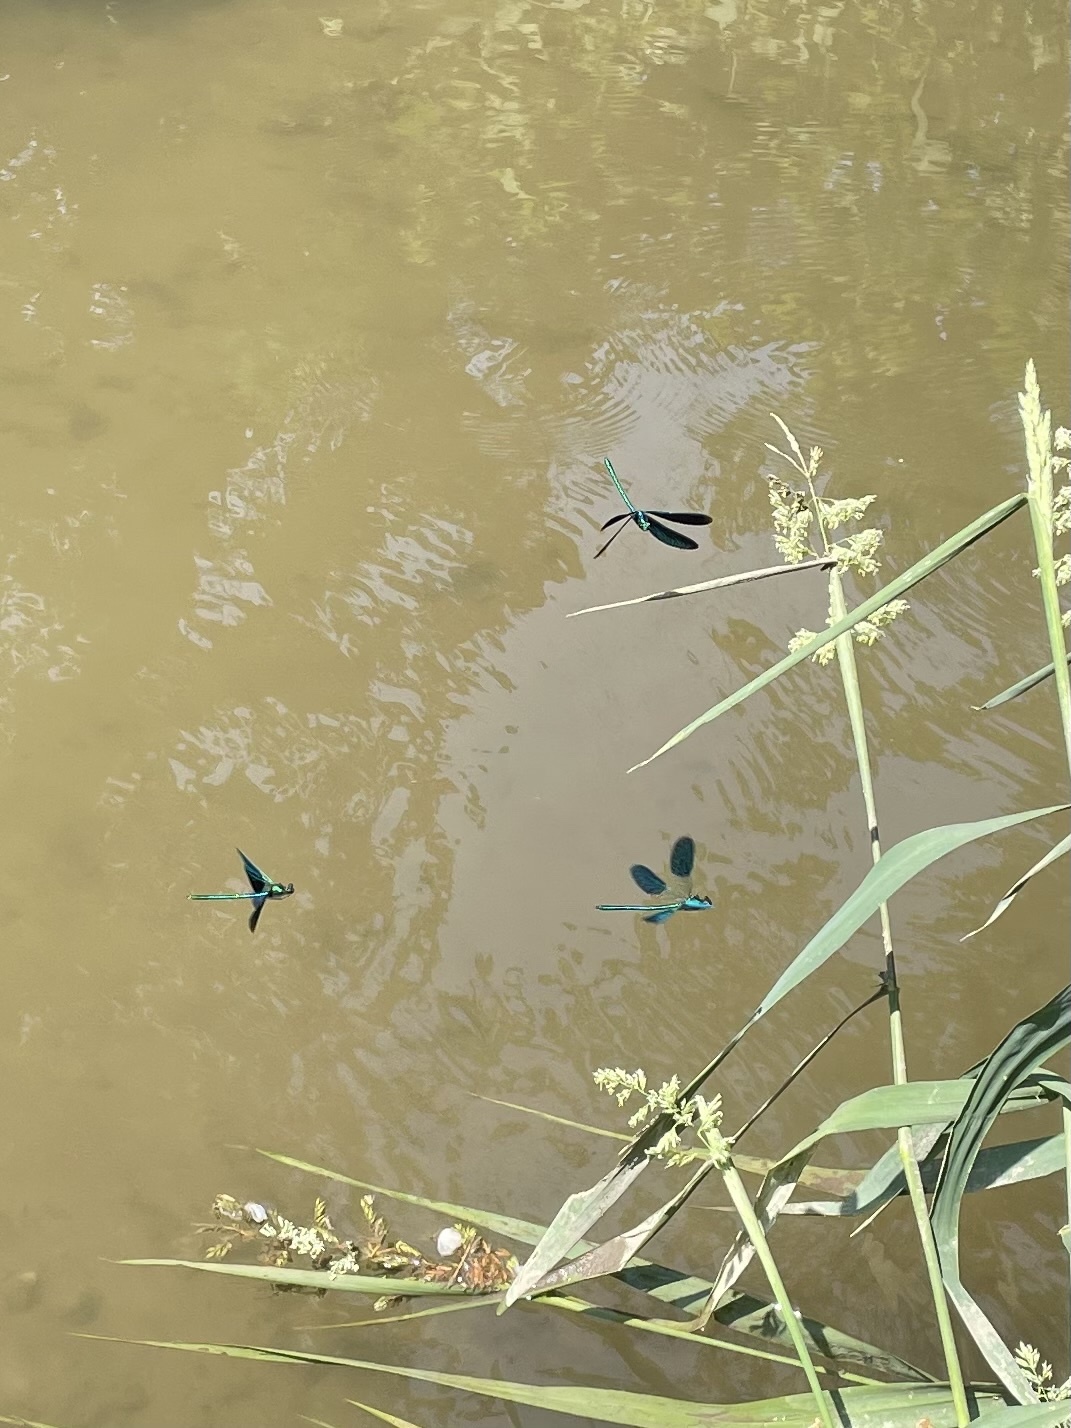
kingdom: Animalia
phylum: Arthropoda
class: Insecta
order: Odonata
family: Calopterygidae
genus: Calopteryx
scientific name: Calopteryx virgo
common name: Beautiful demoiselle
